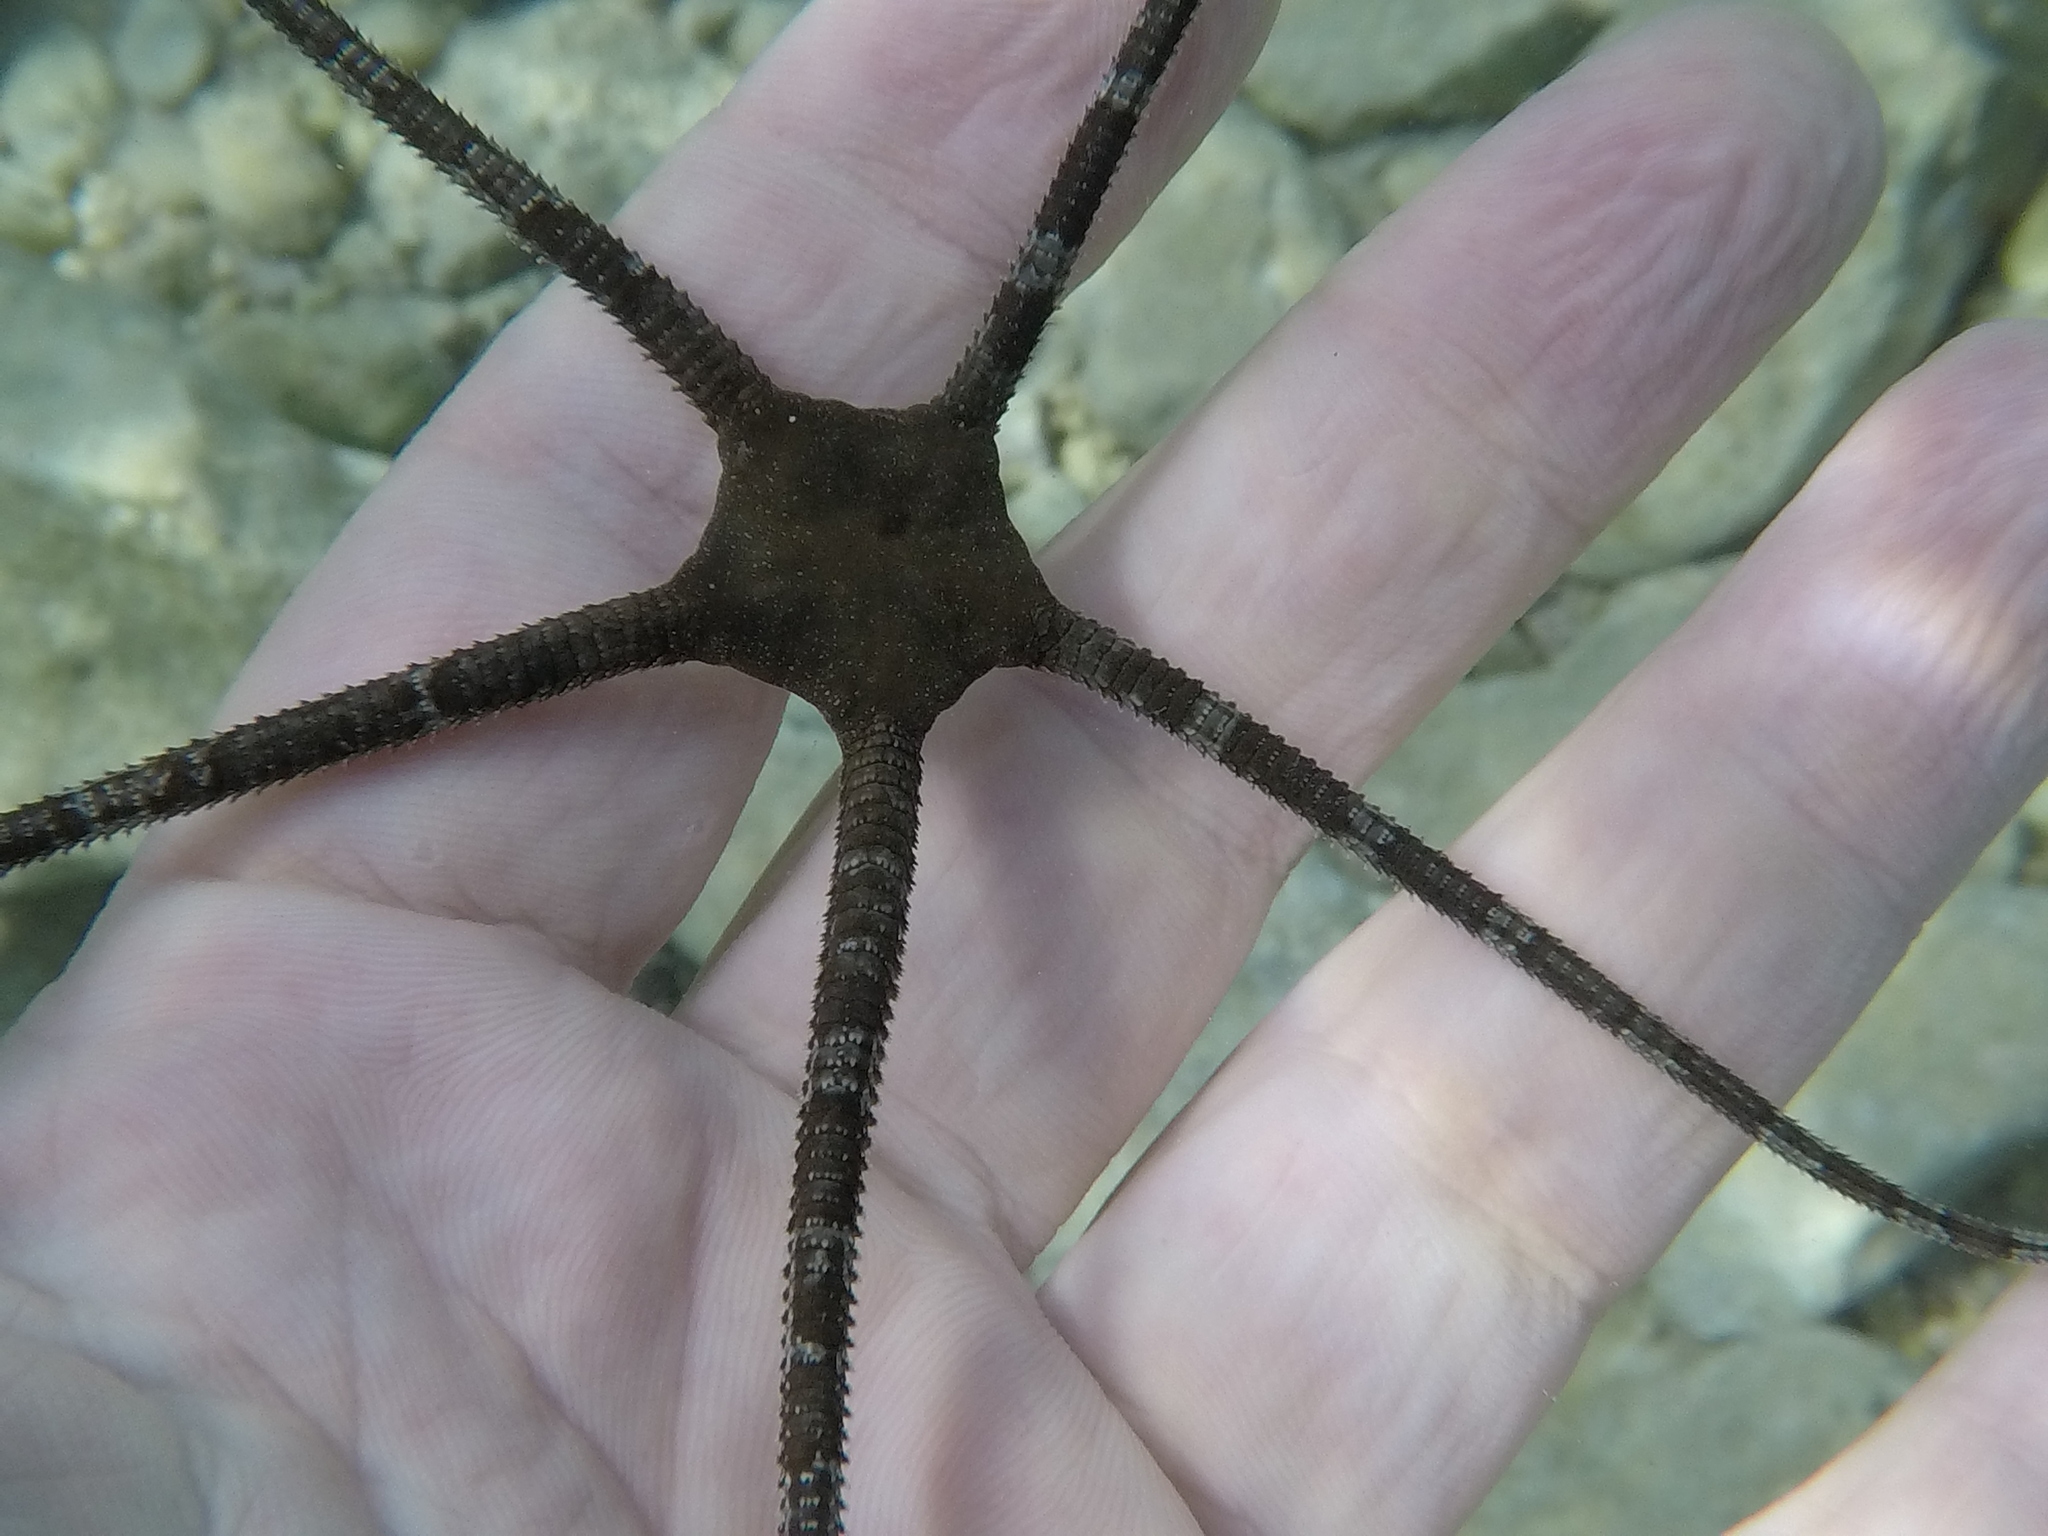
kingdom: Animalia
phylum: Echinodermata
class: Ophiuroidea
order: Ophiacanthida
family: Ophiodermatidae
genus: Ophioderma
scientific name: Ophioderma longicaudum
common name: Smooth brittle-star
